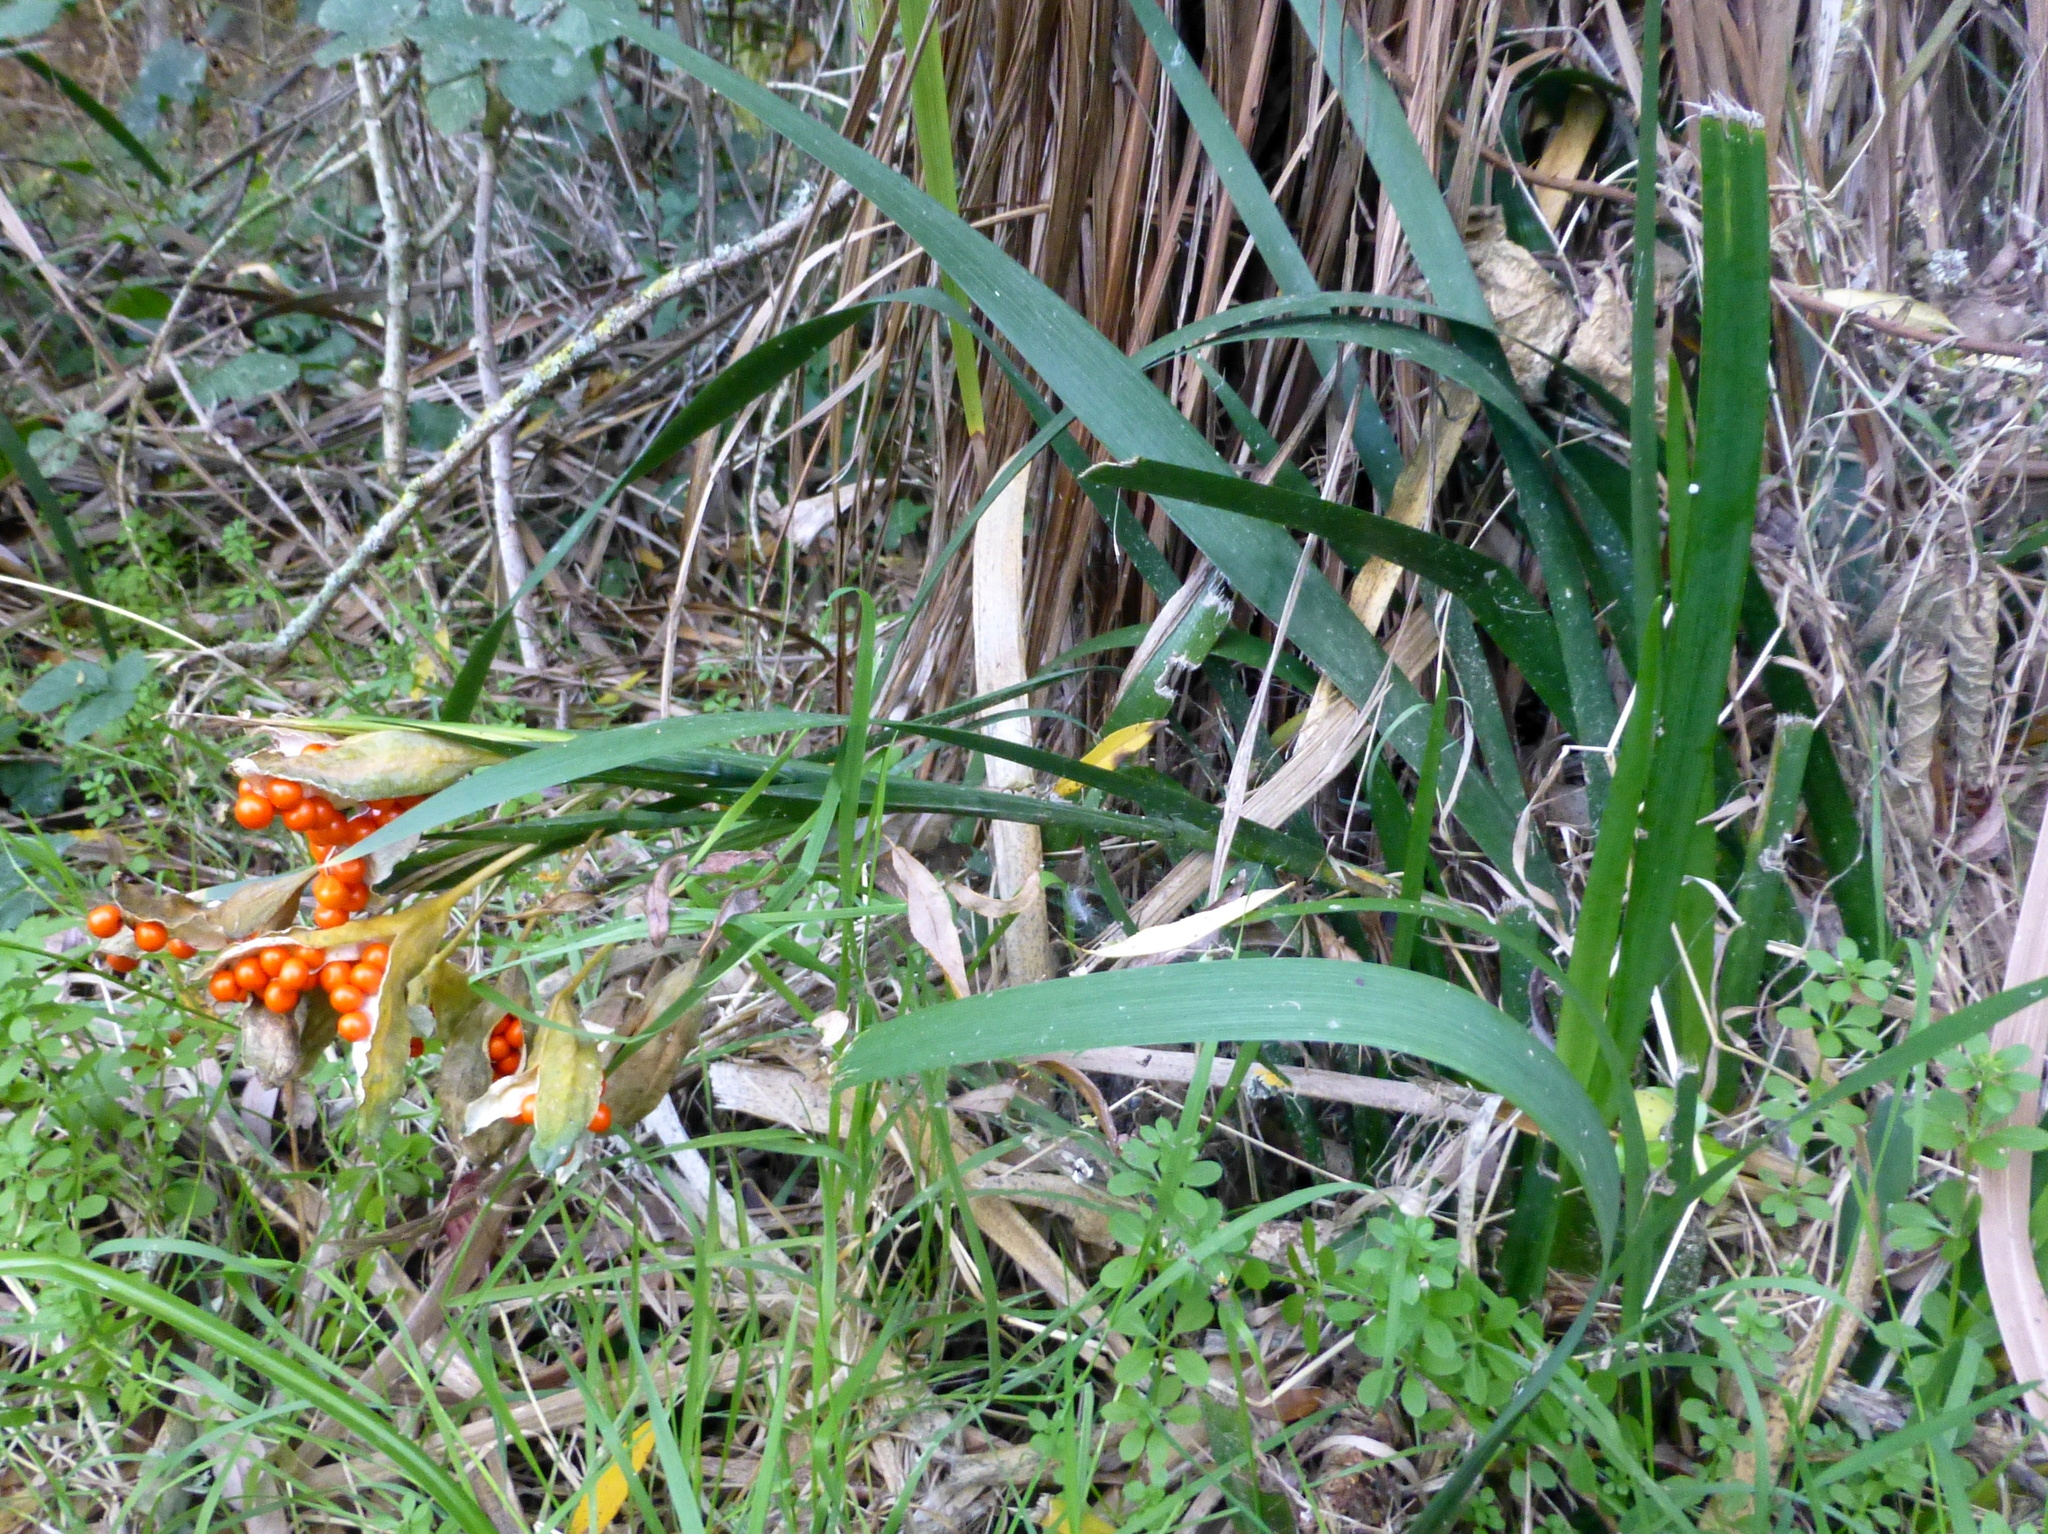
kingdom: Plantae
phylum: Tracheophyta
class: Liliopsida
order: Asparagales
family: Iridaceae
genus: Iris
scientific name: Iris foetidissima
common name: Stinking iris
